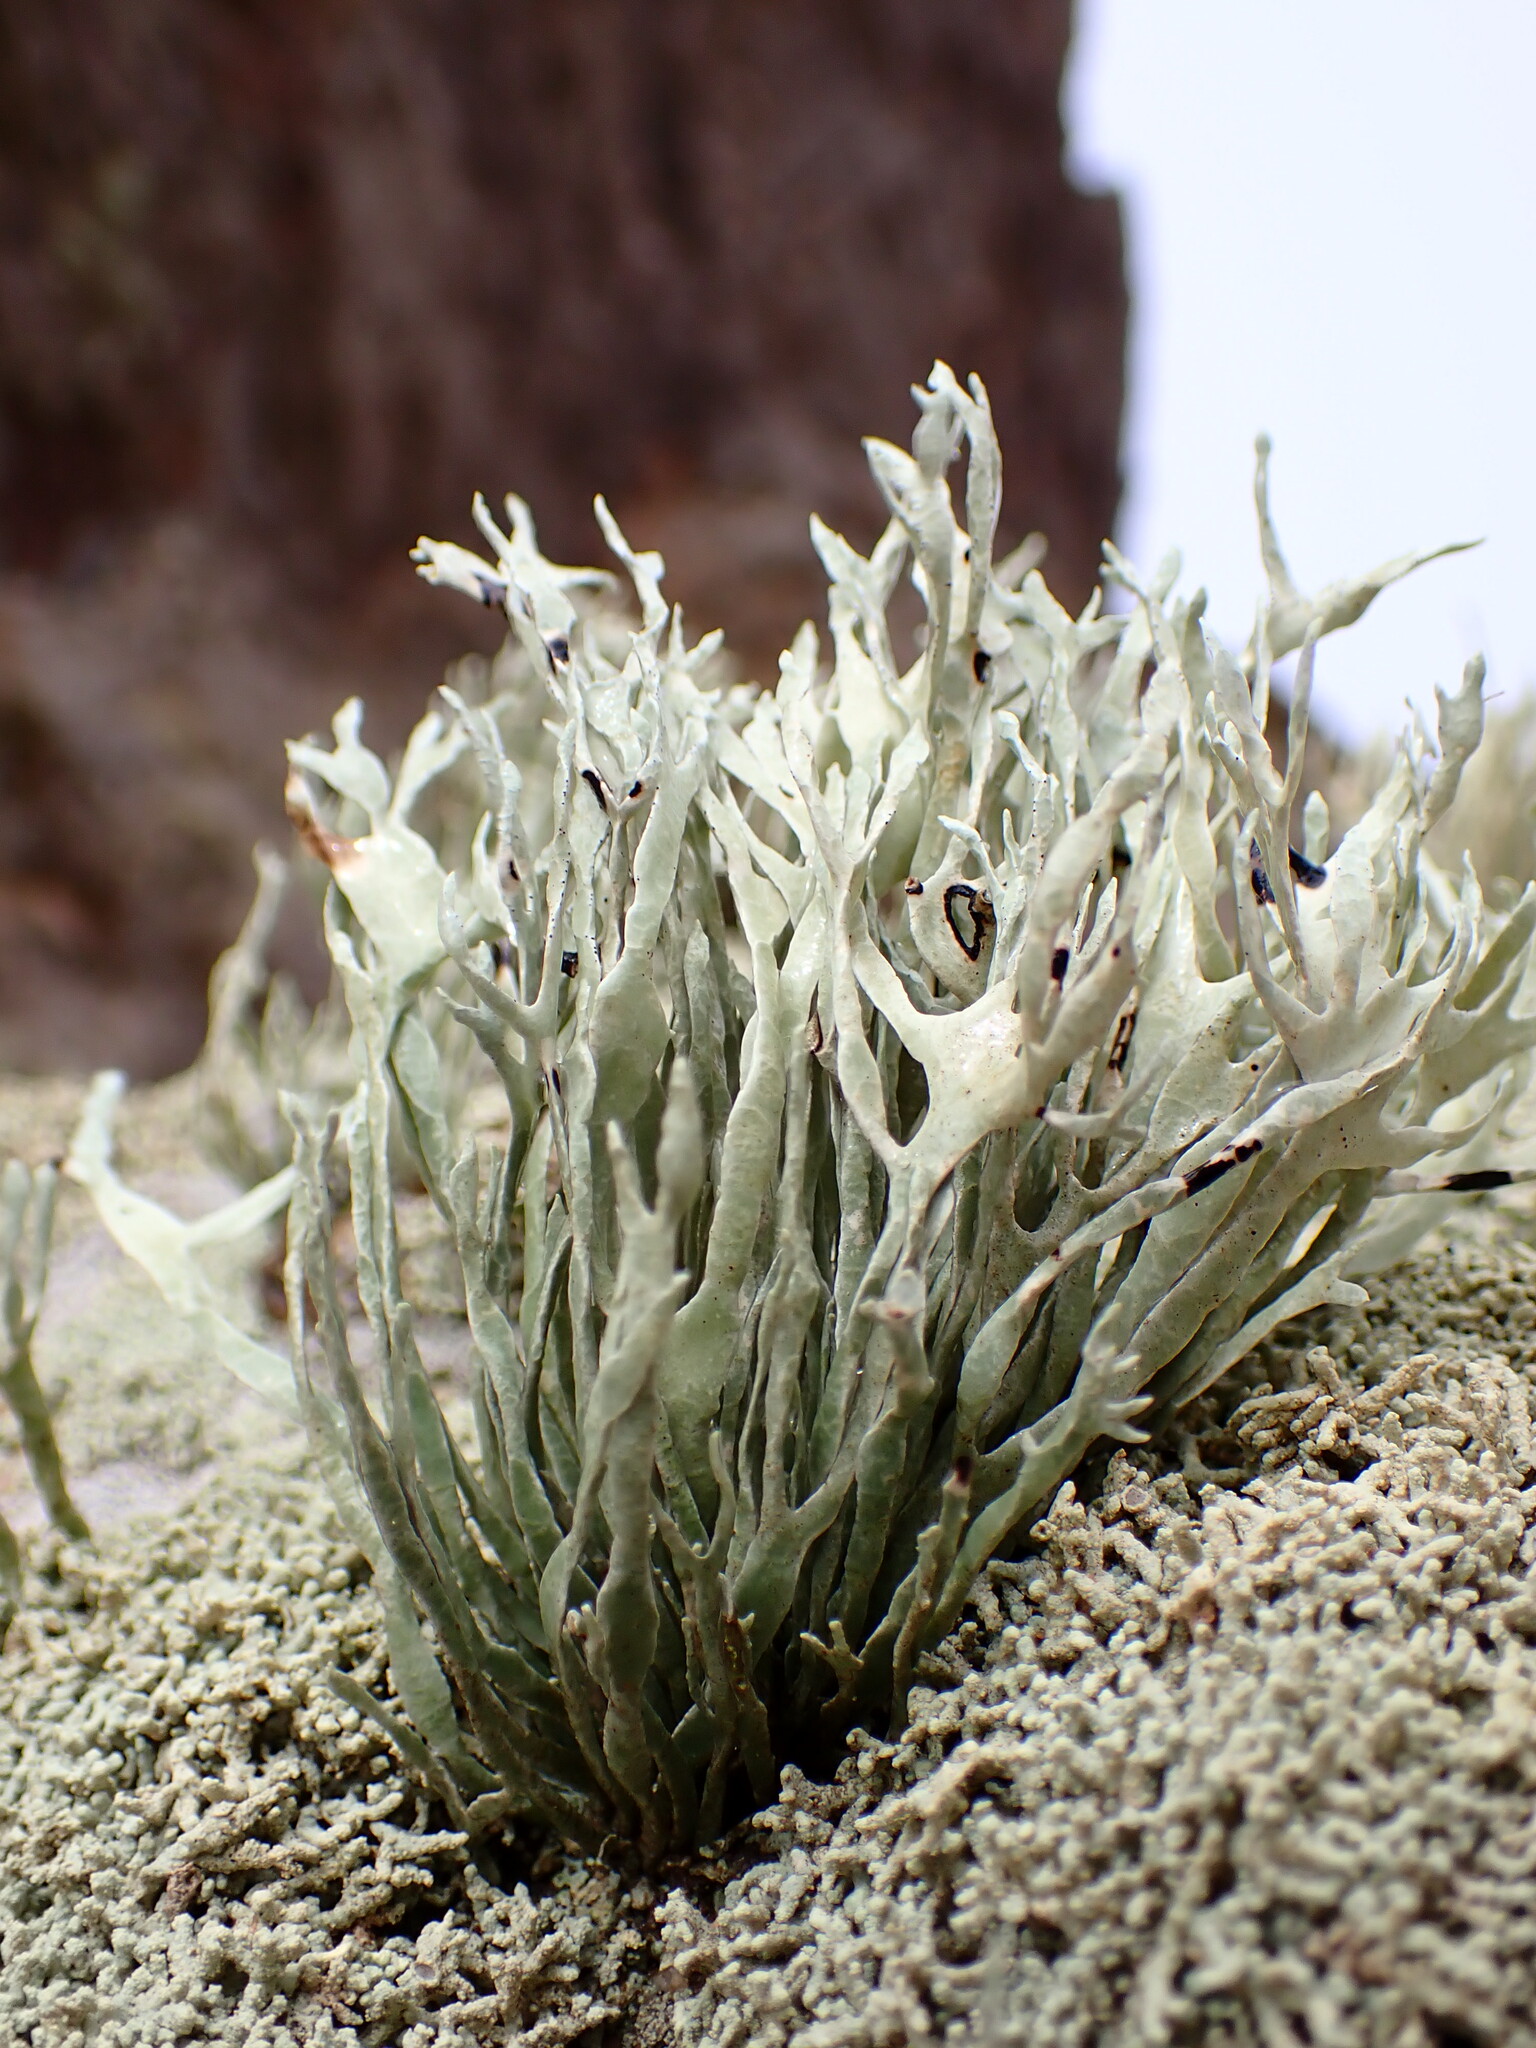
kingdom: Fungi
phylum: Ascomycota
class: Lecanoromycetes
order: Lecanorales
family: Ramalinaceae
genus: Niebla
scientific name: Niebla homalea
